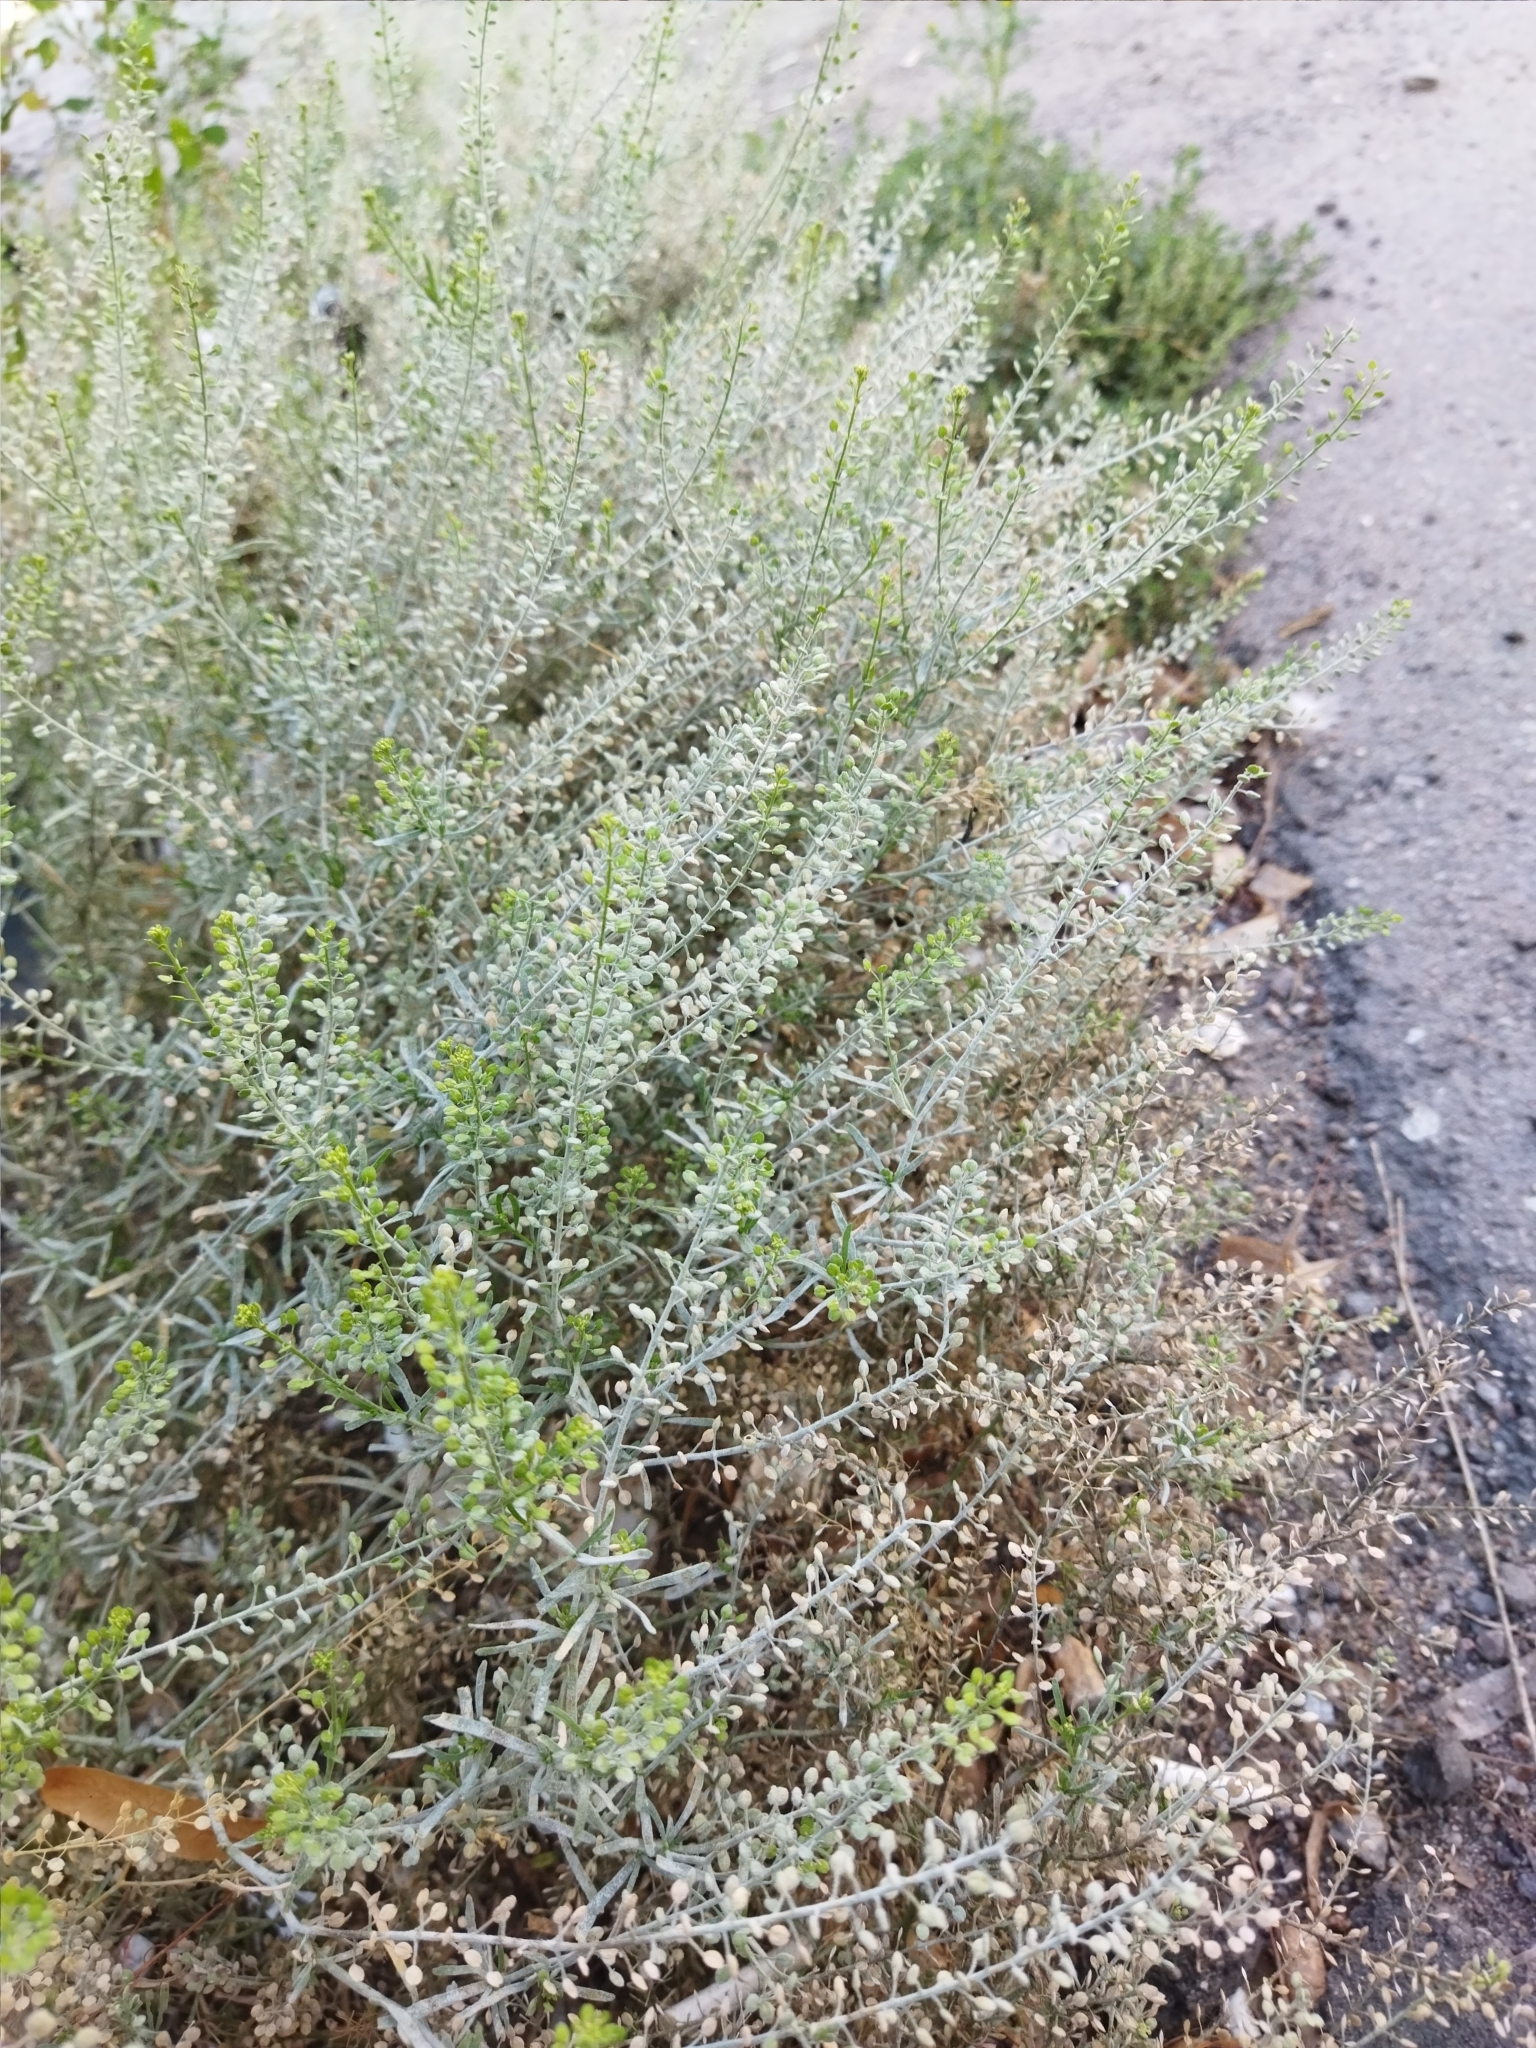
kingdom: Plantae
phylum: Tracheophyta
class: Magnoliopsida
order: Brassicales
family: Brassicaceae
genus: Lepidium
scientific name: Lepidium ruderale
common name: Narrow-leaved pepperwort
